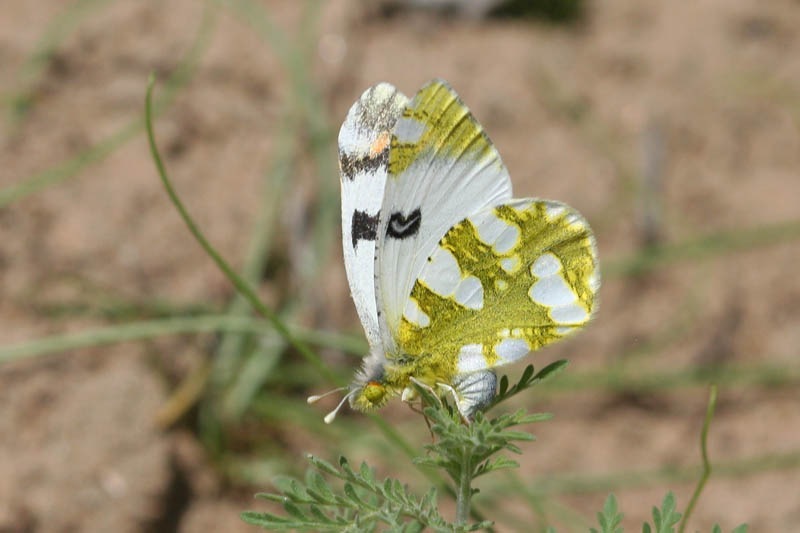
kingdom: Animalia
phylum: Arthropoda
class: Insecta
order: Lepidoptera
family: Pieridae
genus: Zegris
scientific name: Zegris fausti
